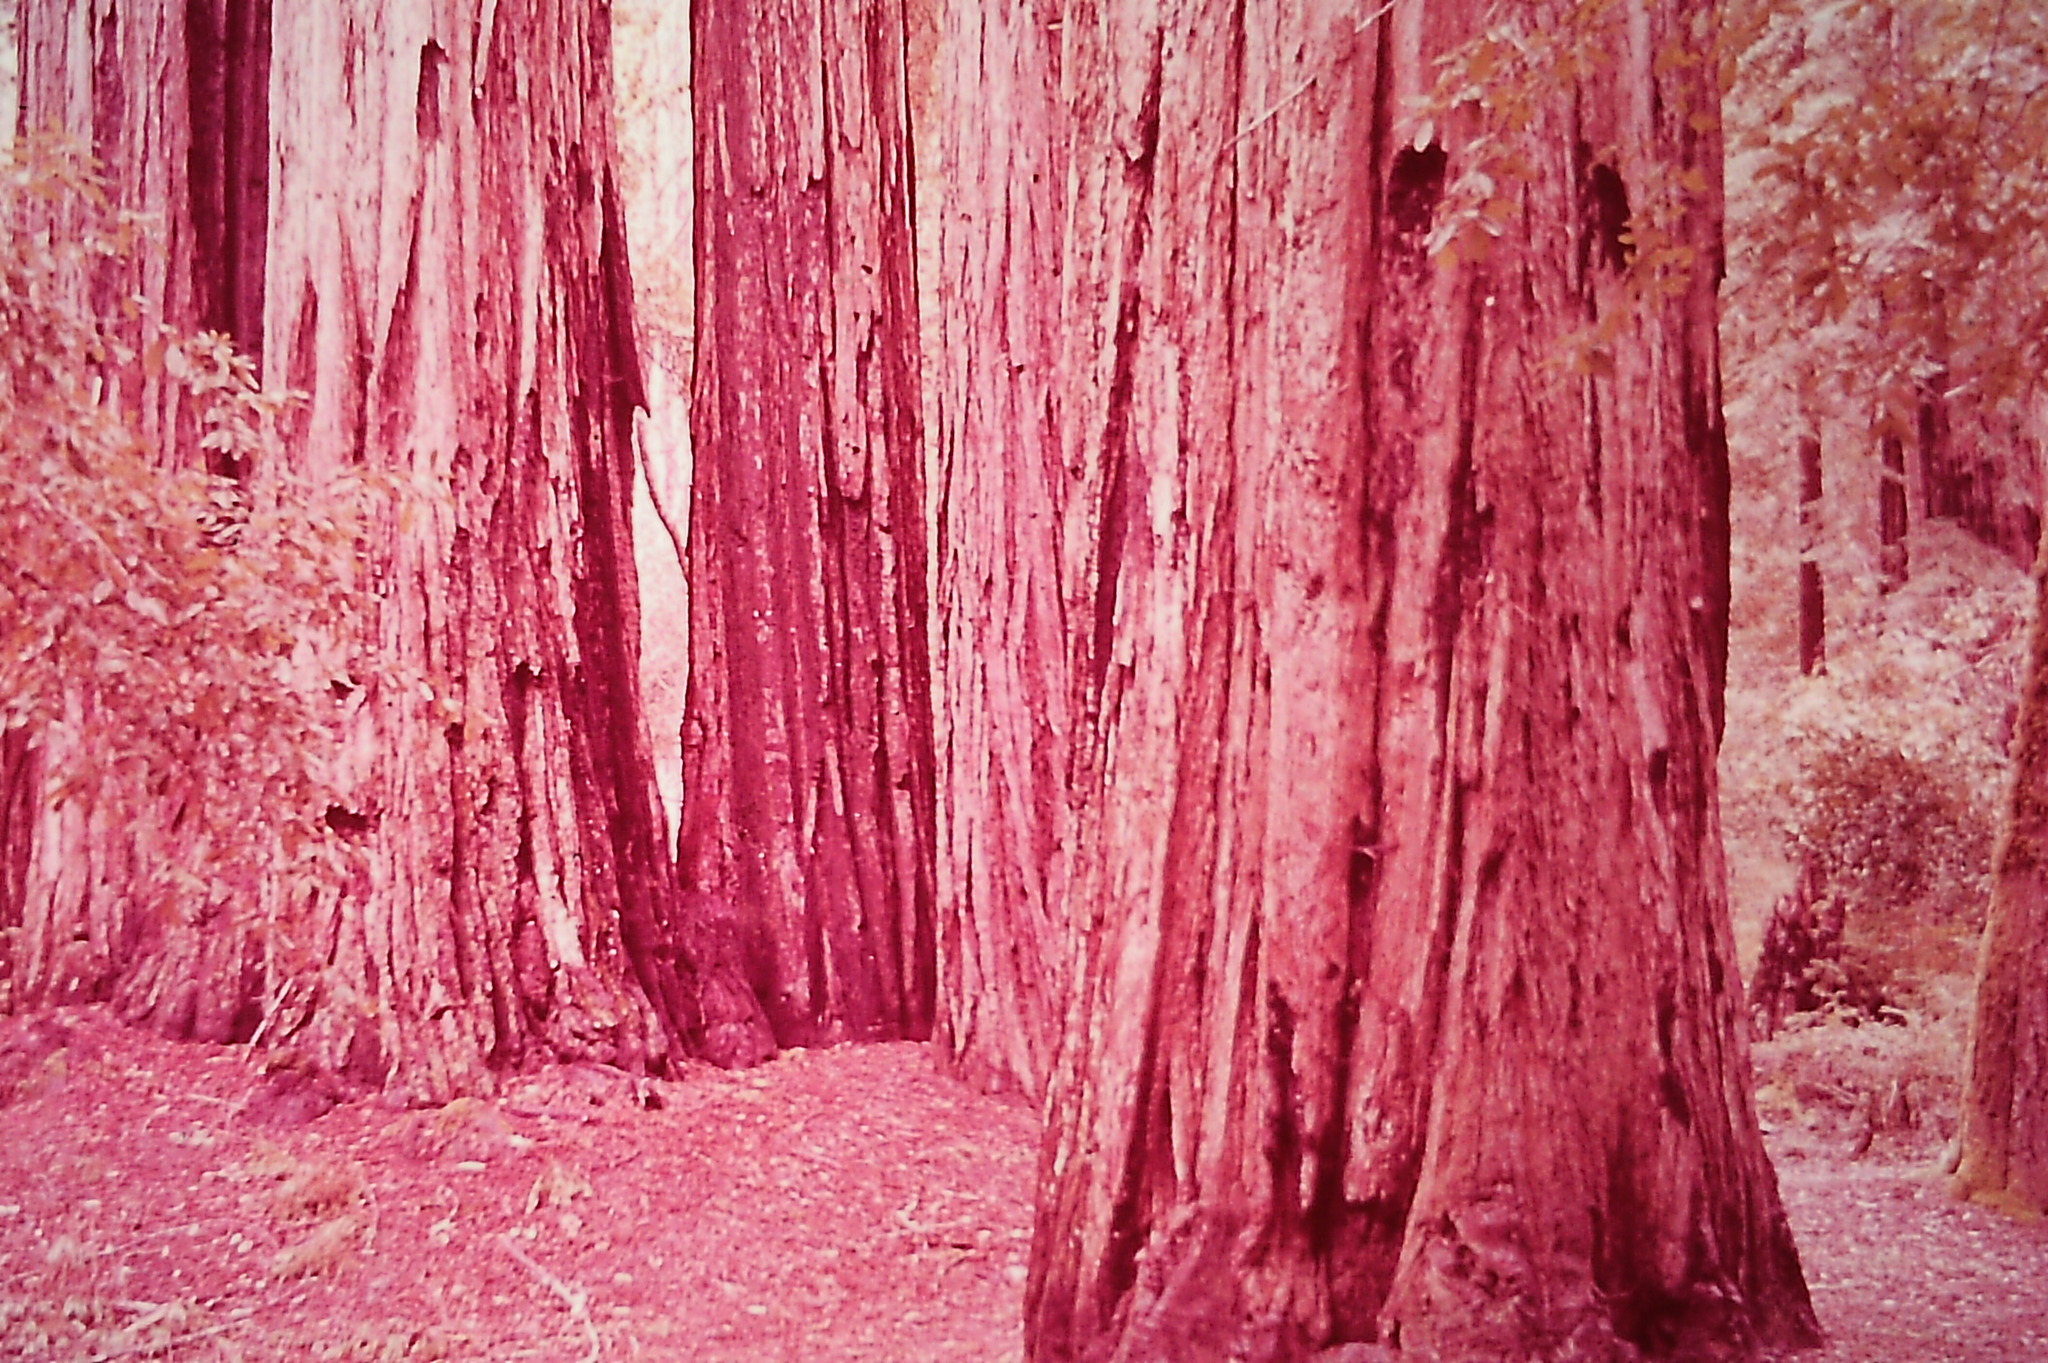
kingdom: Plantae
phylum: Tracheophyta
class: Pinopsida
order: Pinales
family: Cupressaceae
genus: Sequoia
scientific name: Sequoia sempervirens
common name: Coast redwood
